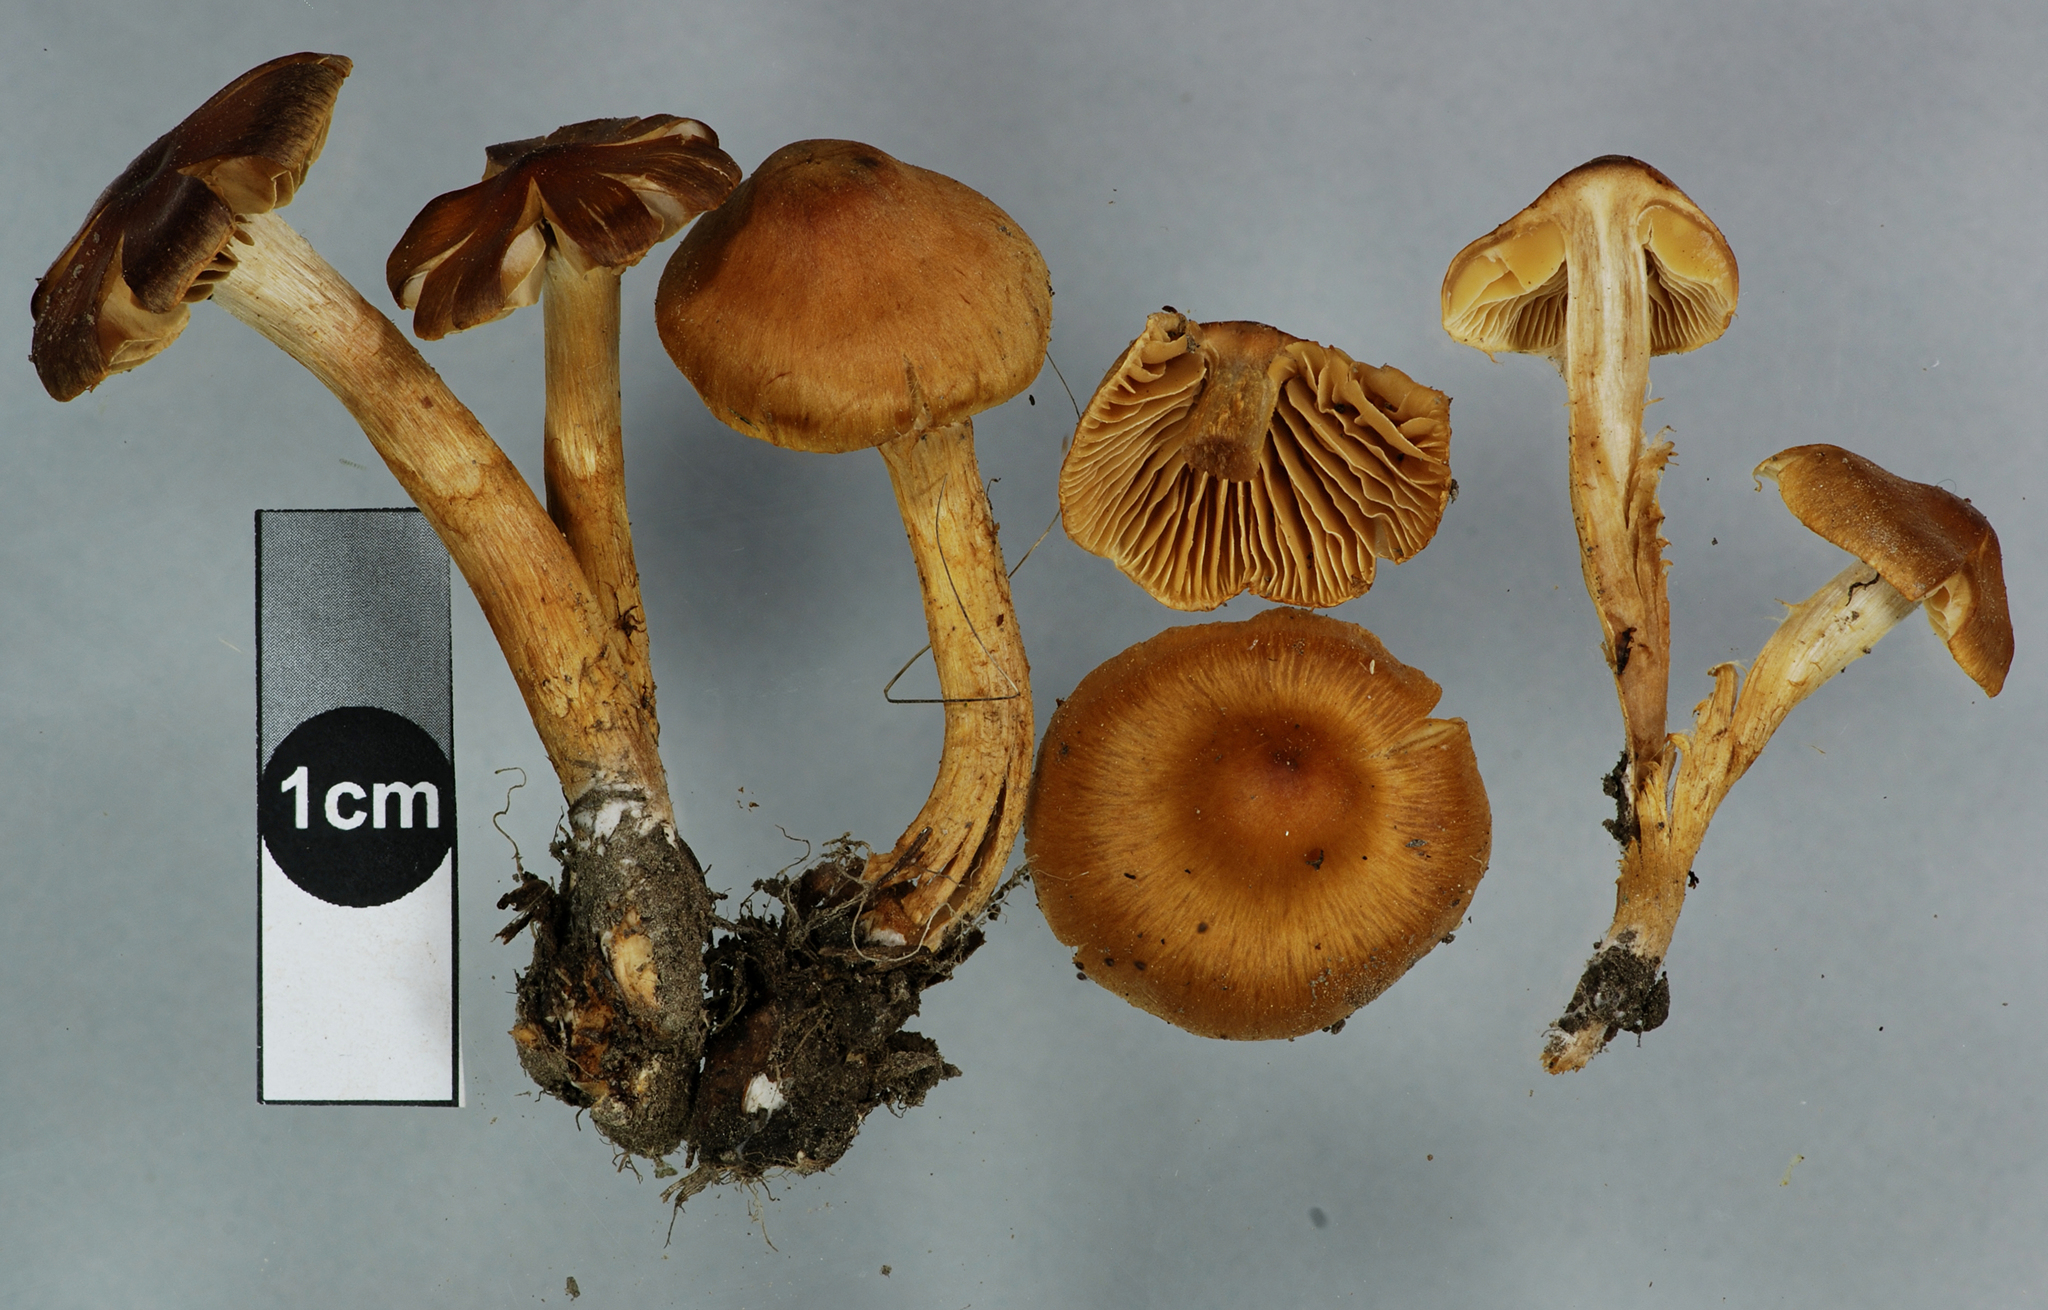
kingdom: Fungi
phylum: Basidiomycota
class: Agaricomycetes
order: Agaricales
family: Cortinariaceae
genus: Cortinarius
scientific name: Cortinarius paludosaniosus
